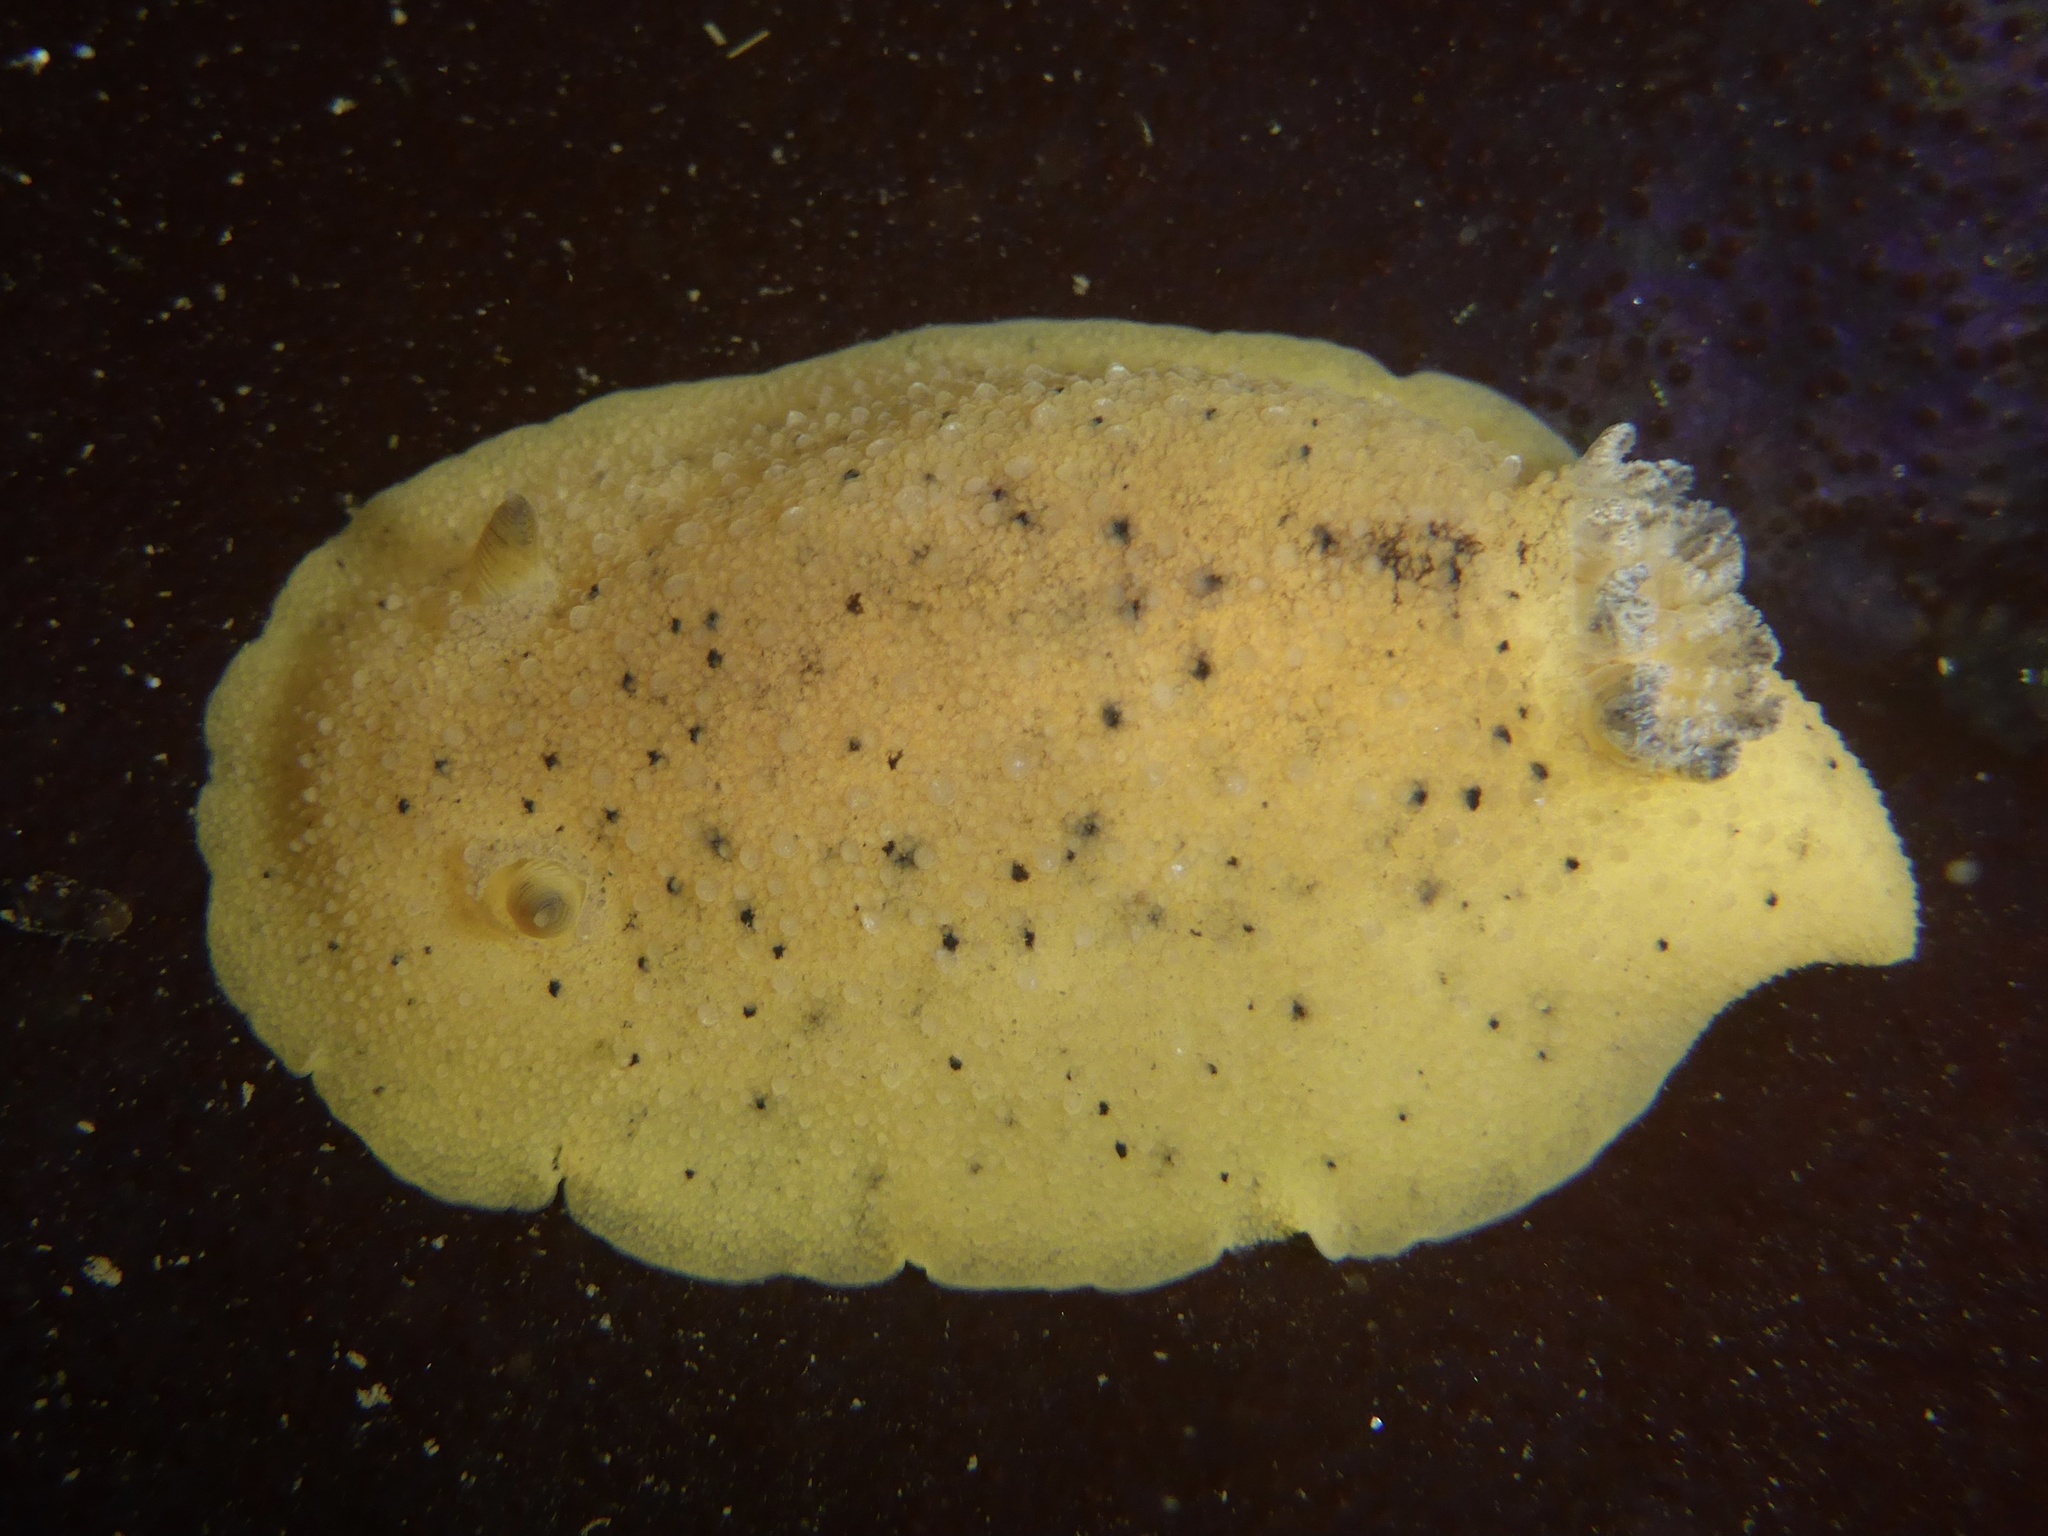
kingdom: Animalia
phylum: Mollusca
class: Gastropoda
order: Nudibranchia
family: Discodorididae
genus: Geitodoris
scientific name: Geitodoris heathi
